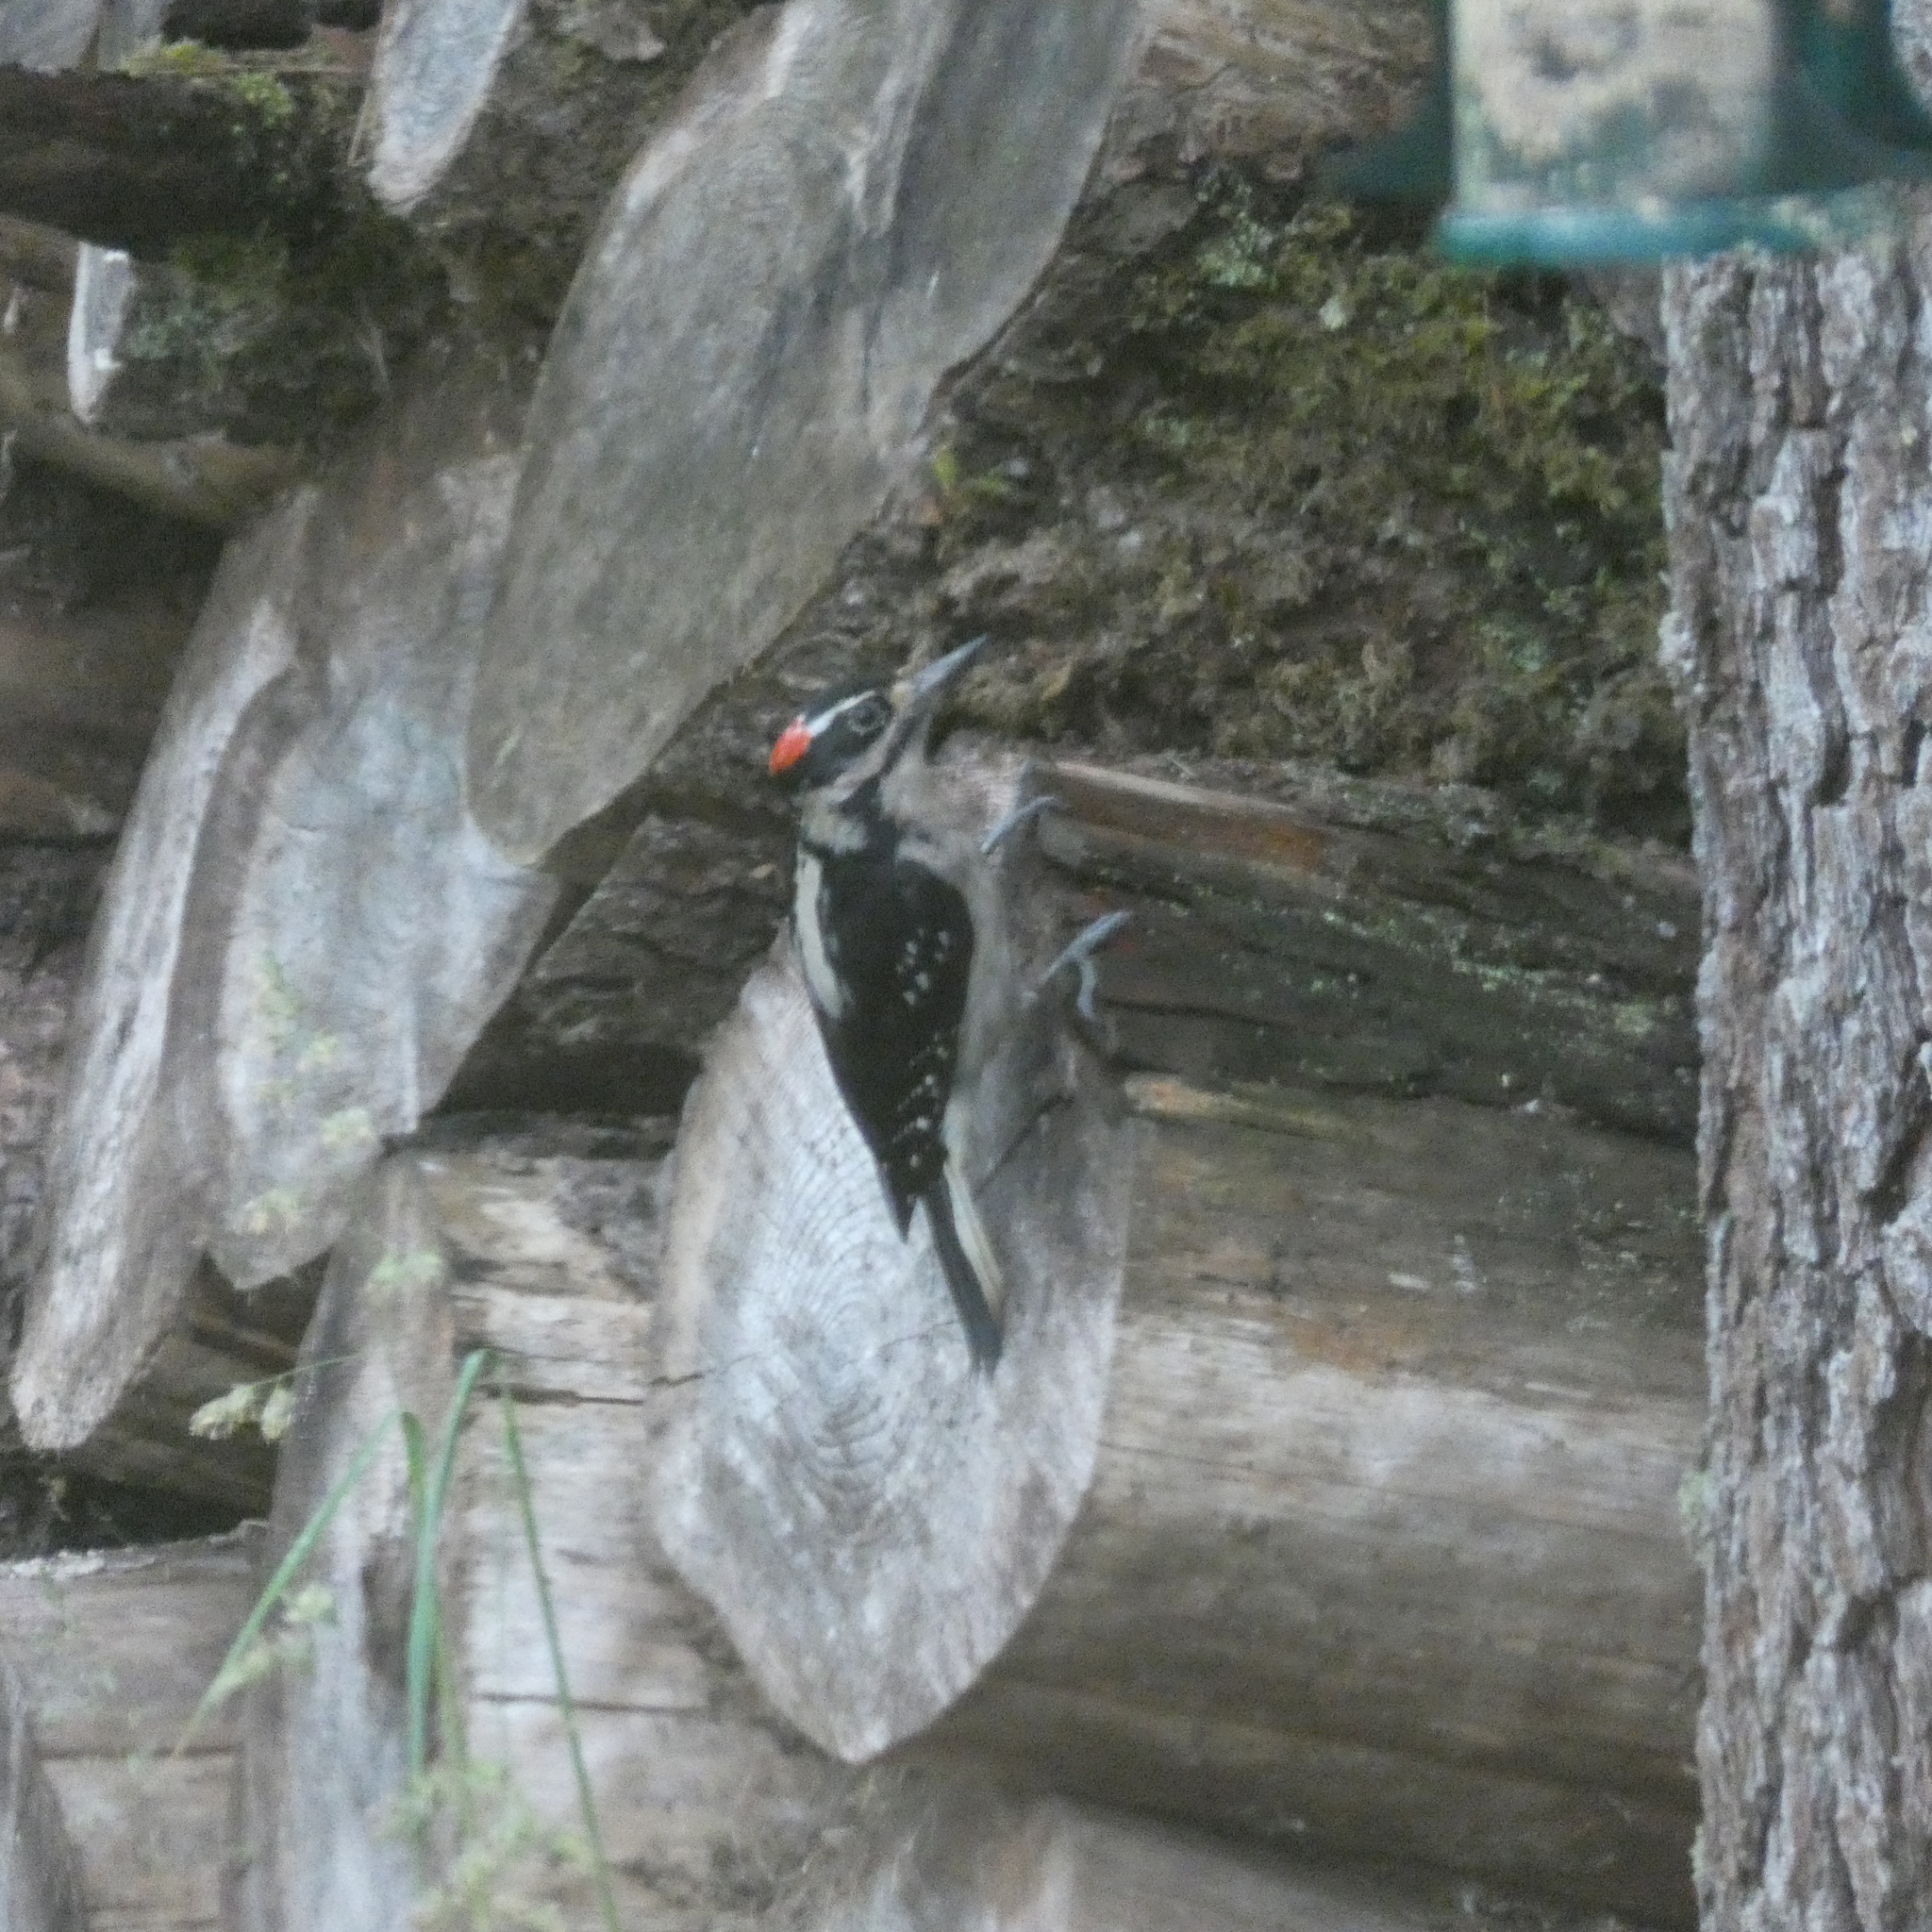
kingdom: Animalia
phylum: Chordata
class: Aves
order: Piciformes
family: Picidae
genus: Leuconotopicus
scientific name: Leuconotopicus villosus
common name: Hairy woodpecker
